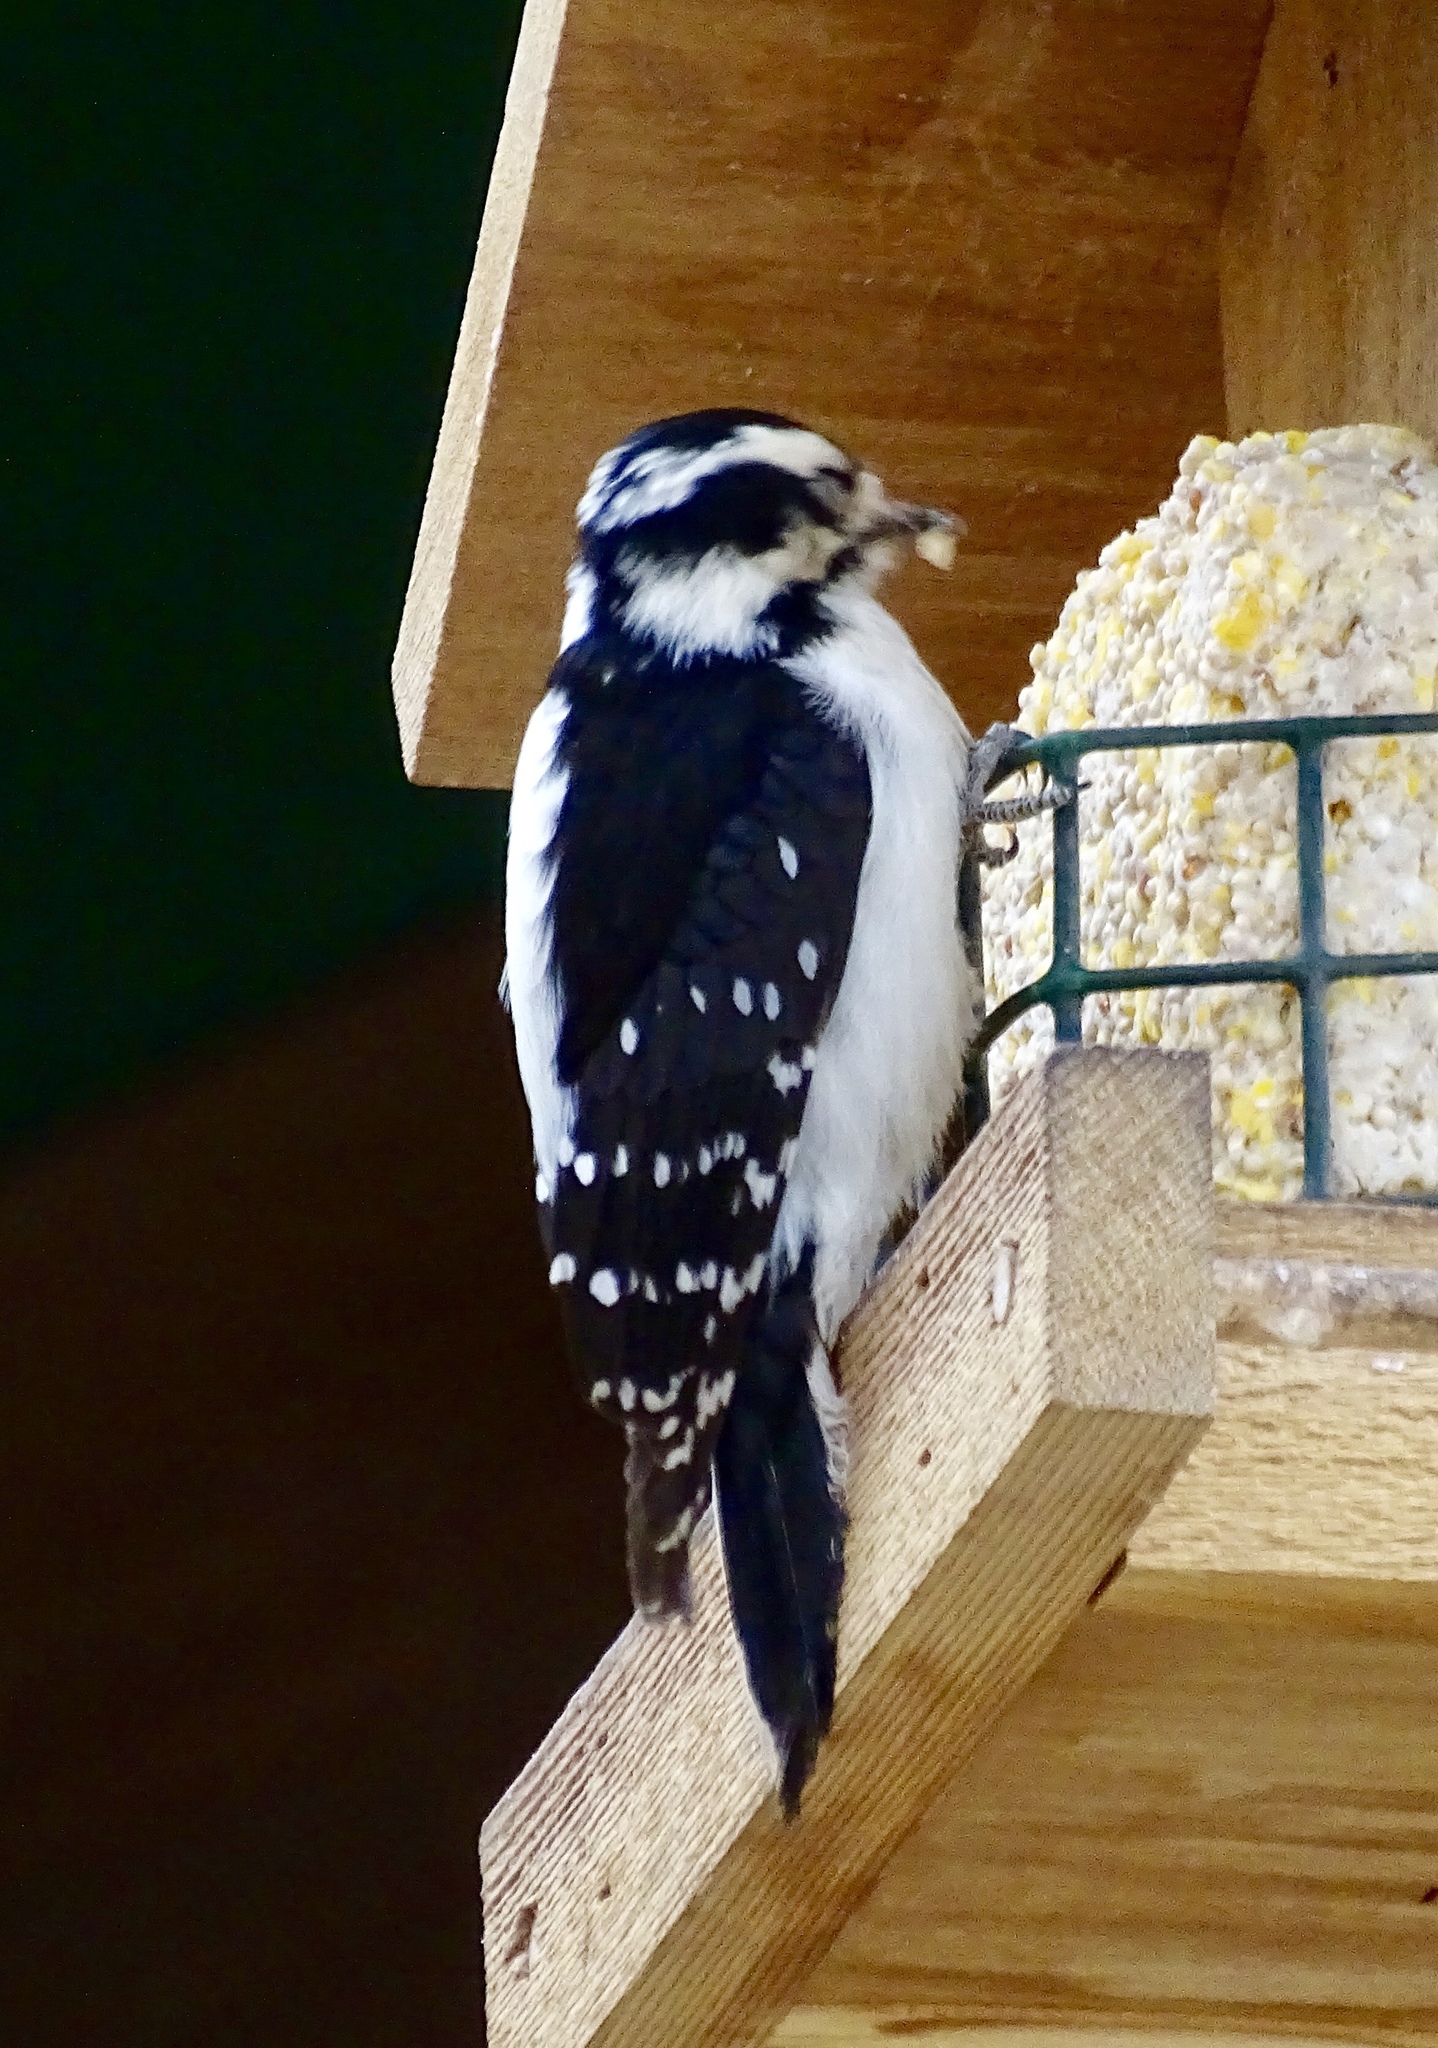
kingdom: Animalia
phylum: Chordata
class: Aves
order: Piciformes
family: Picidae
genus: Dryobates
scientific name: Dryobates pubescens
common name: Downy woodpecker
